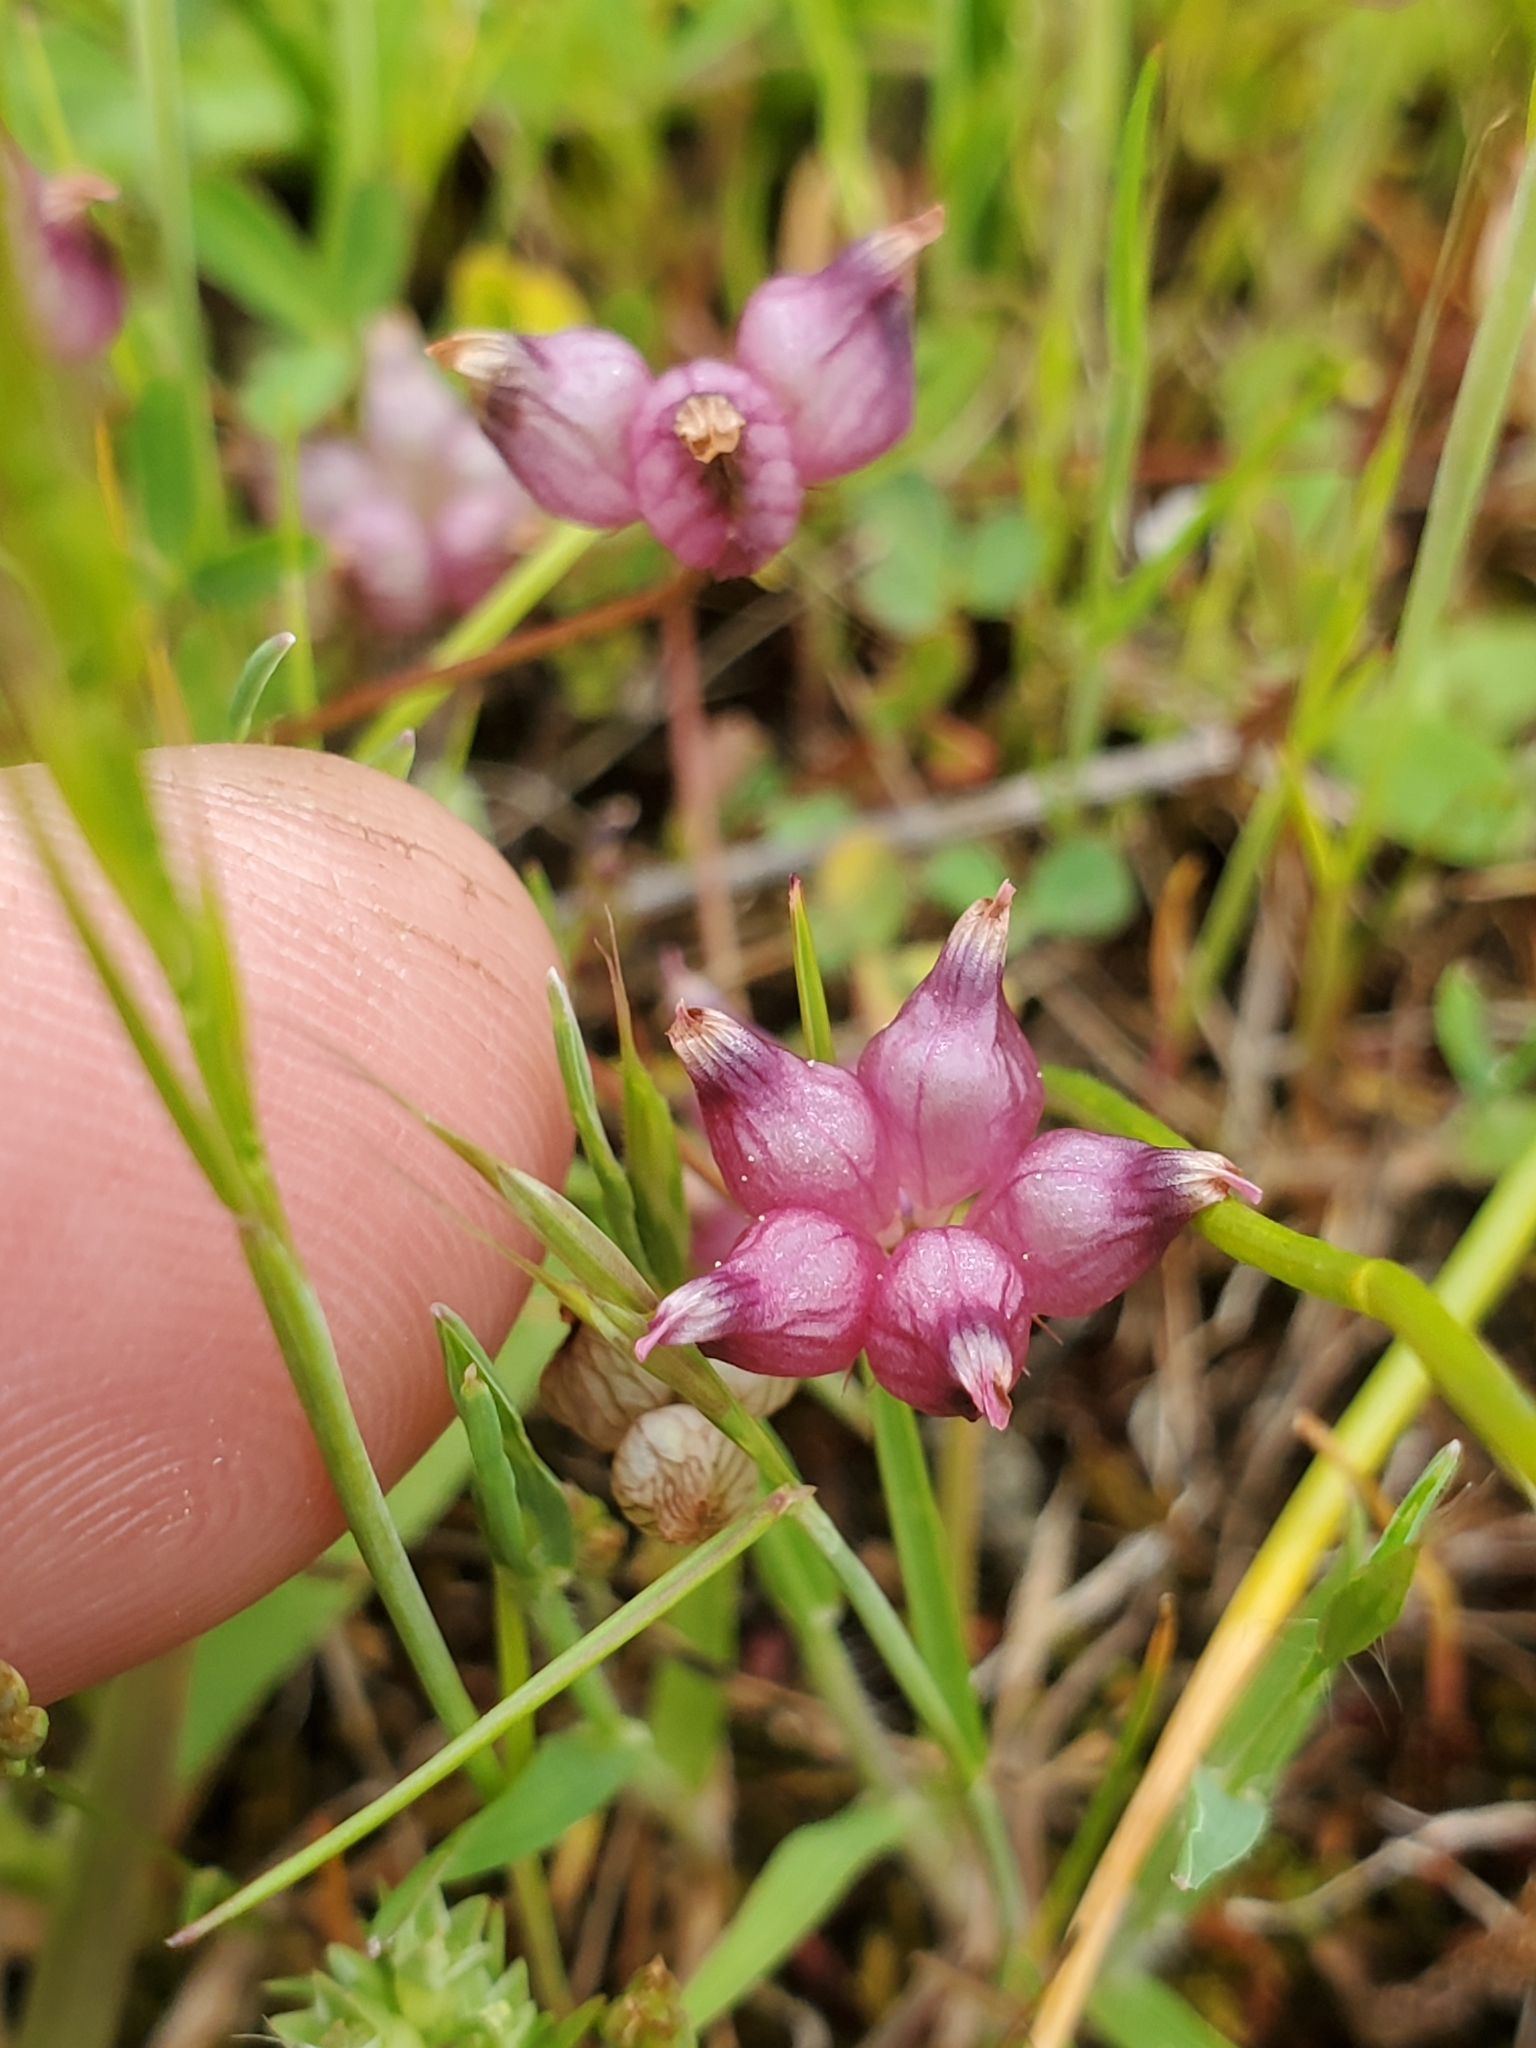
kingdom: Plantae
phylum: Tracheophyta
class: Magnoliopsida
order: Fabales
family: Fabaceae
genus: Trifolium
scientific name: Trifolium depauperatum
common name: Poverty clover
